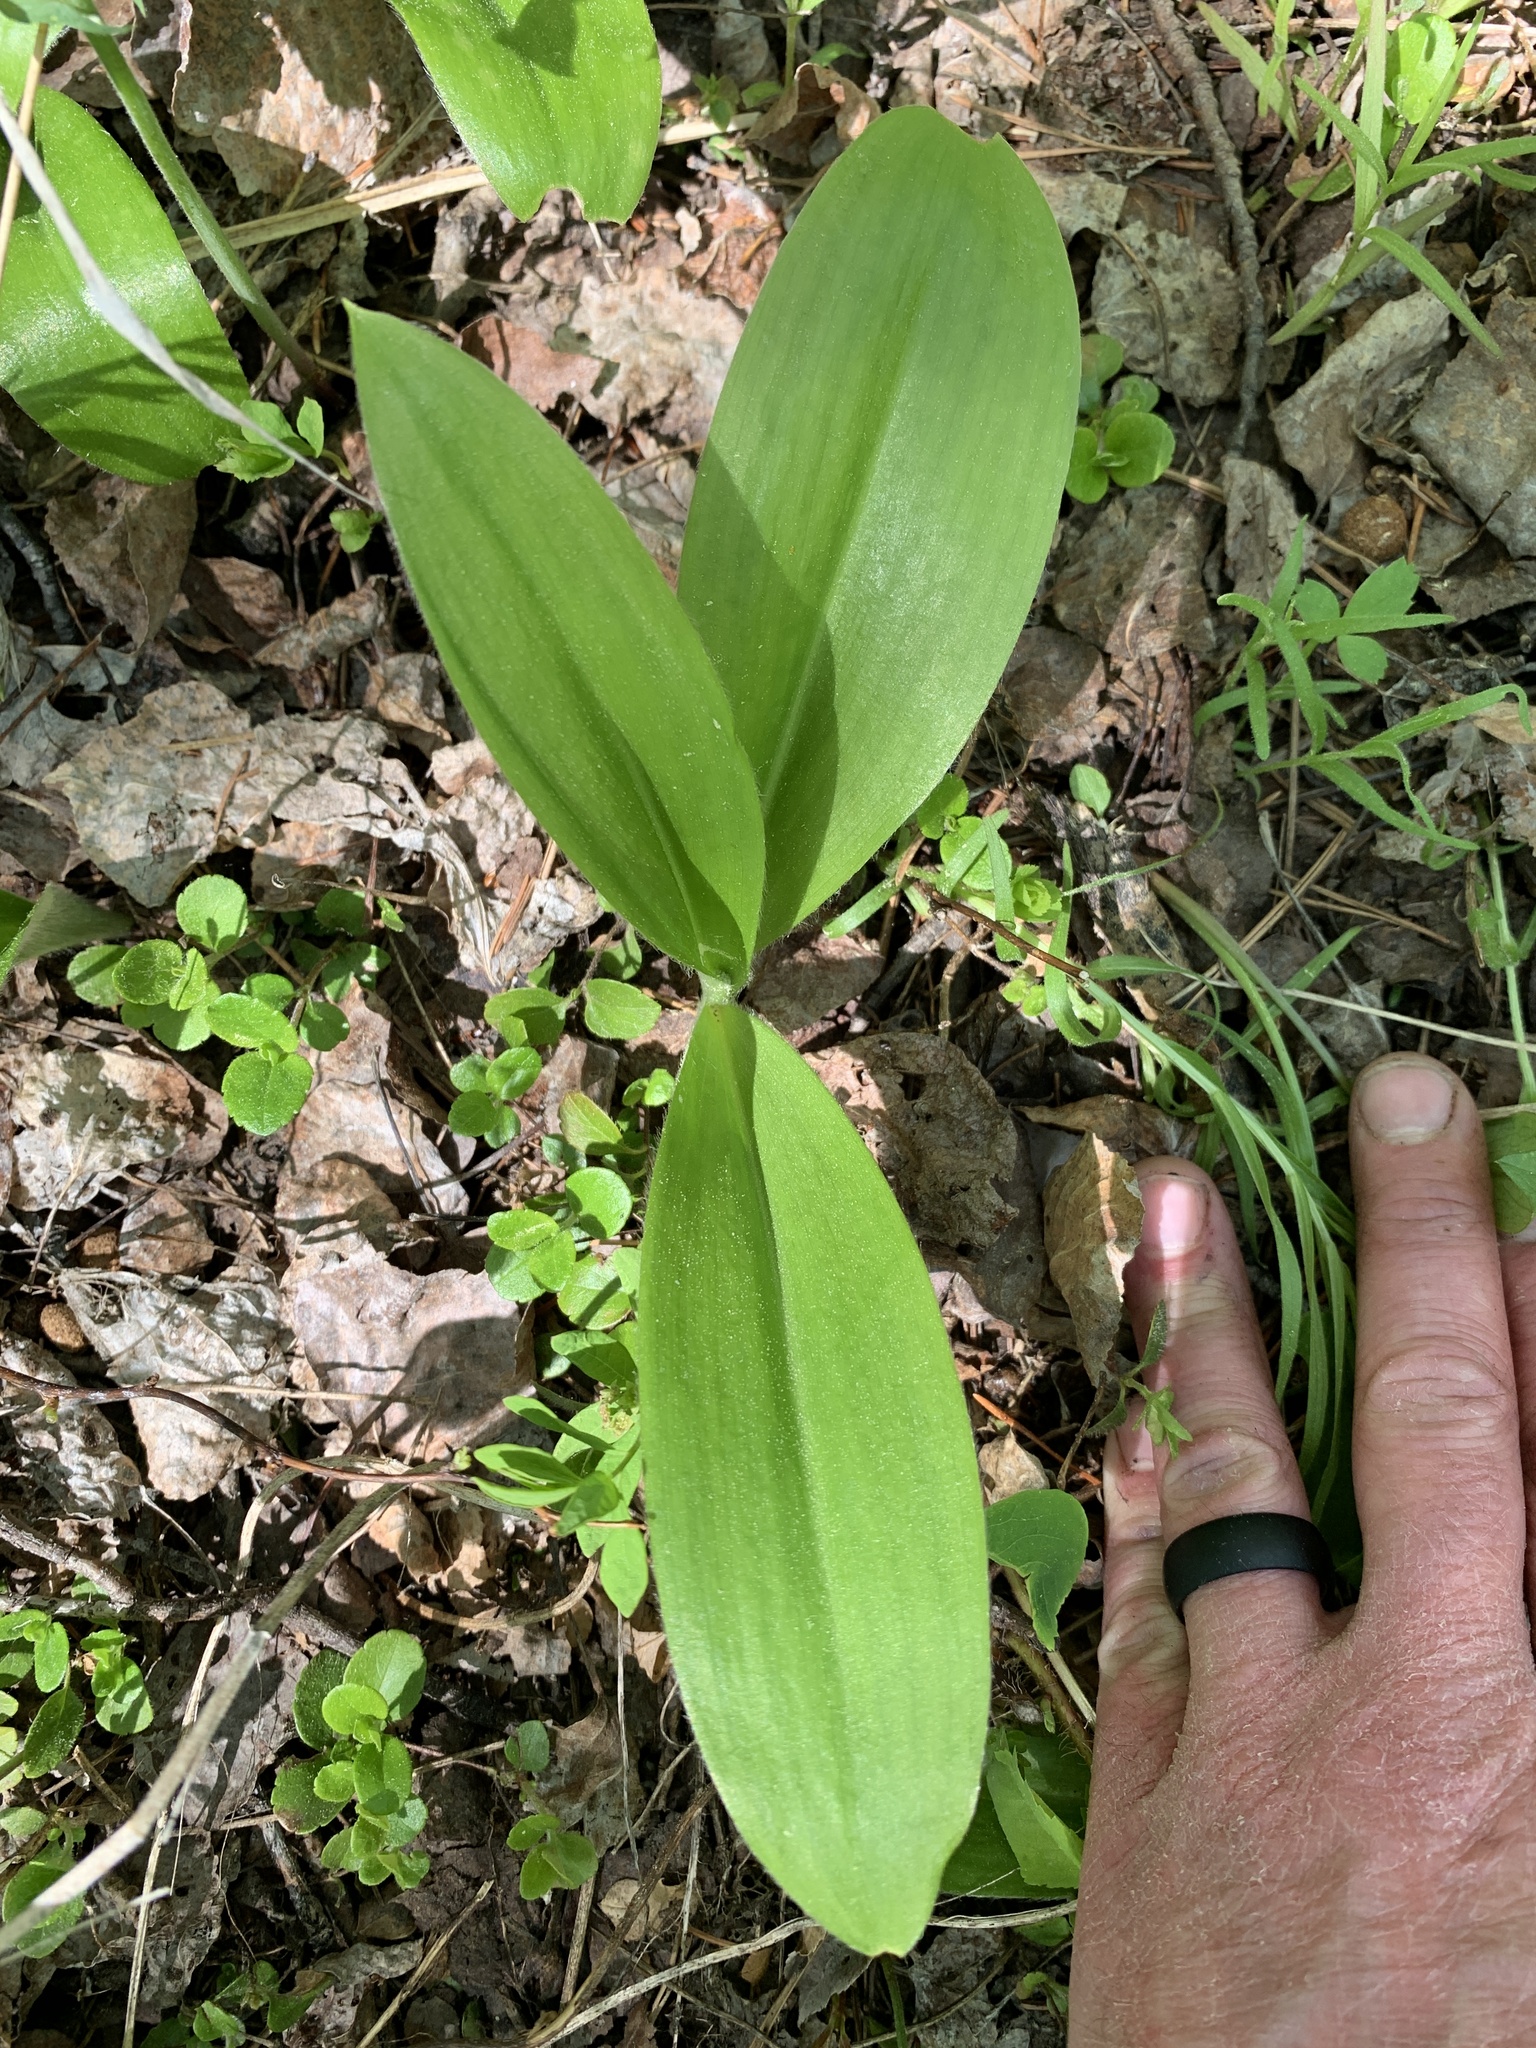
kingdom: Plantae
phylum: Tracheophyta
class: Liliopsida
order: Liliales
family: Liliaceae
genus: Clintonia
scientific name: Clintonia uniflora
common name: Queen's cup
